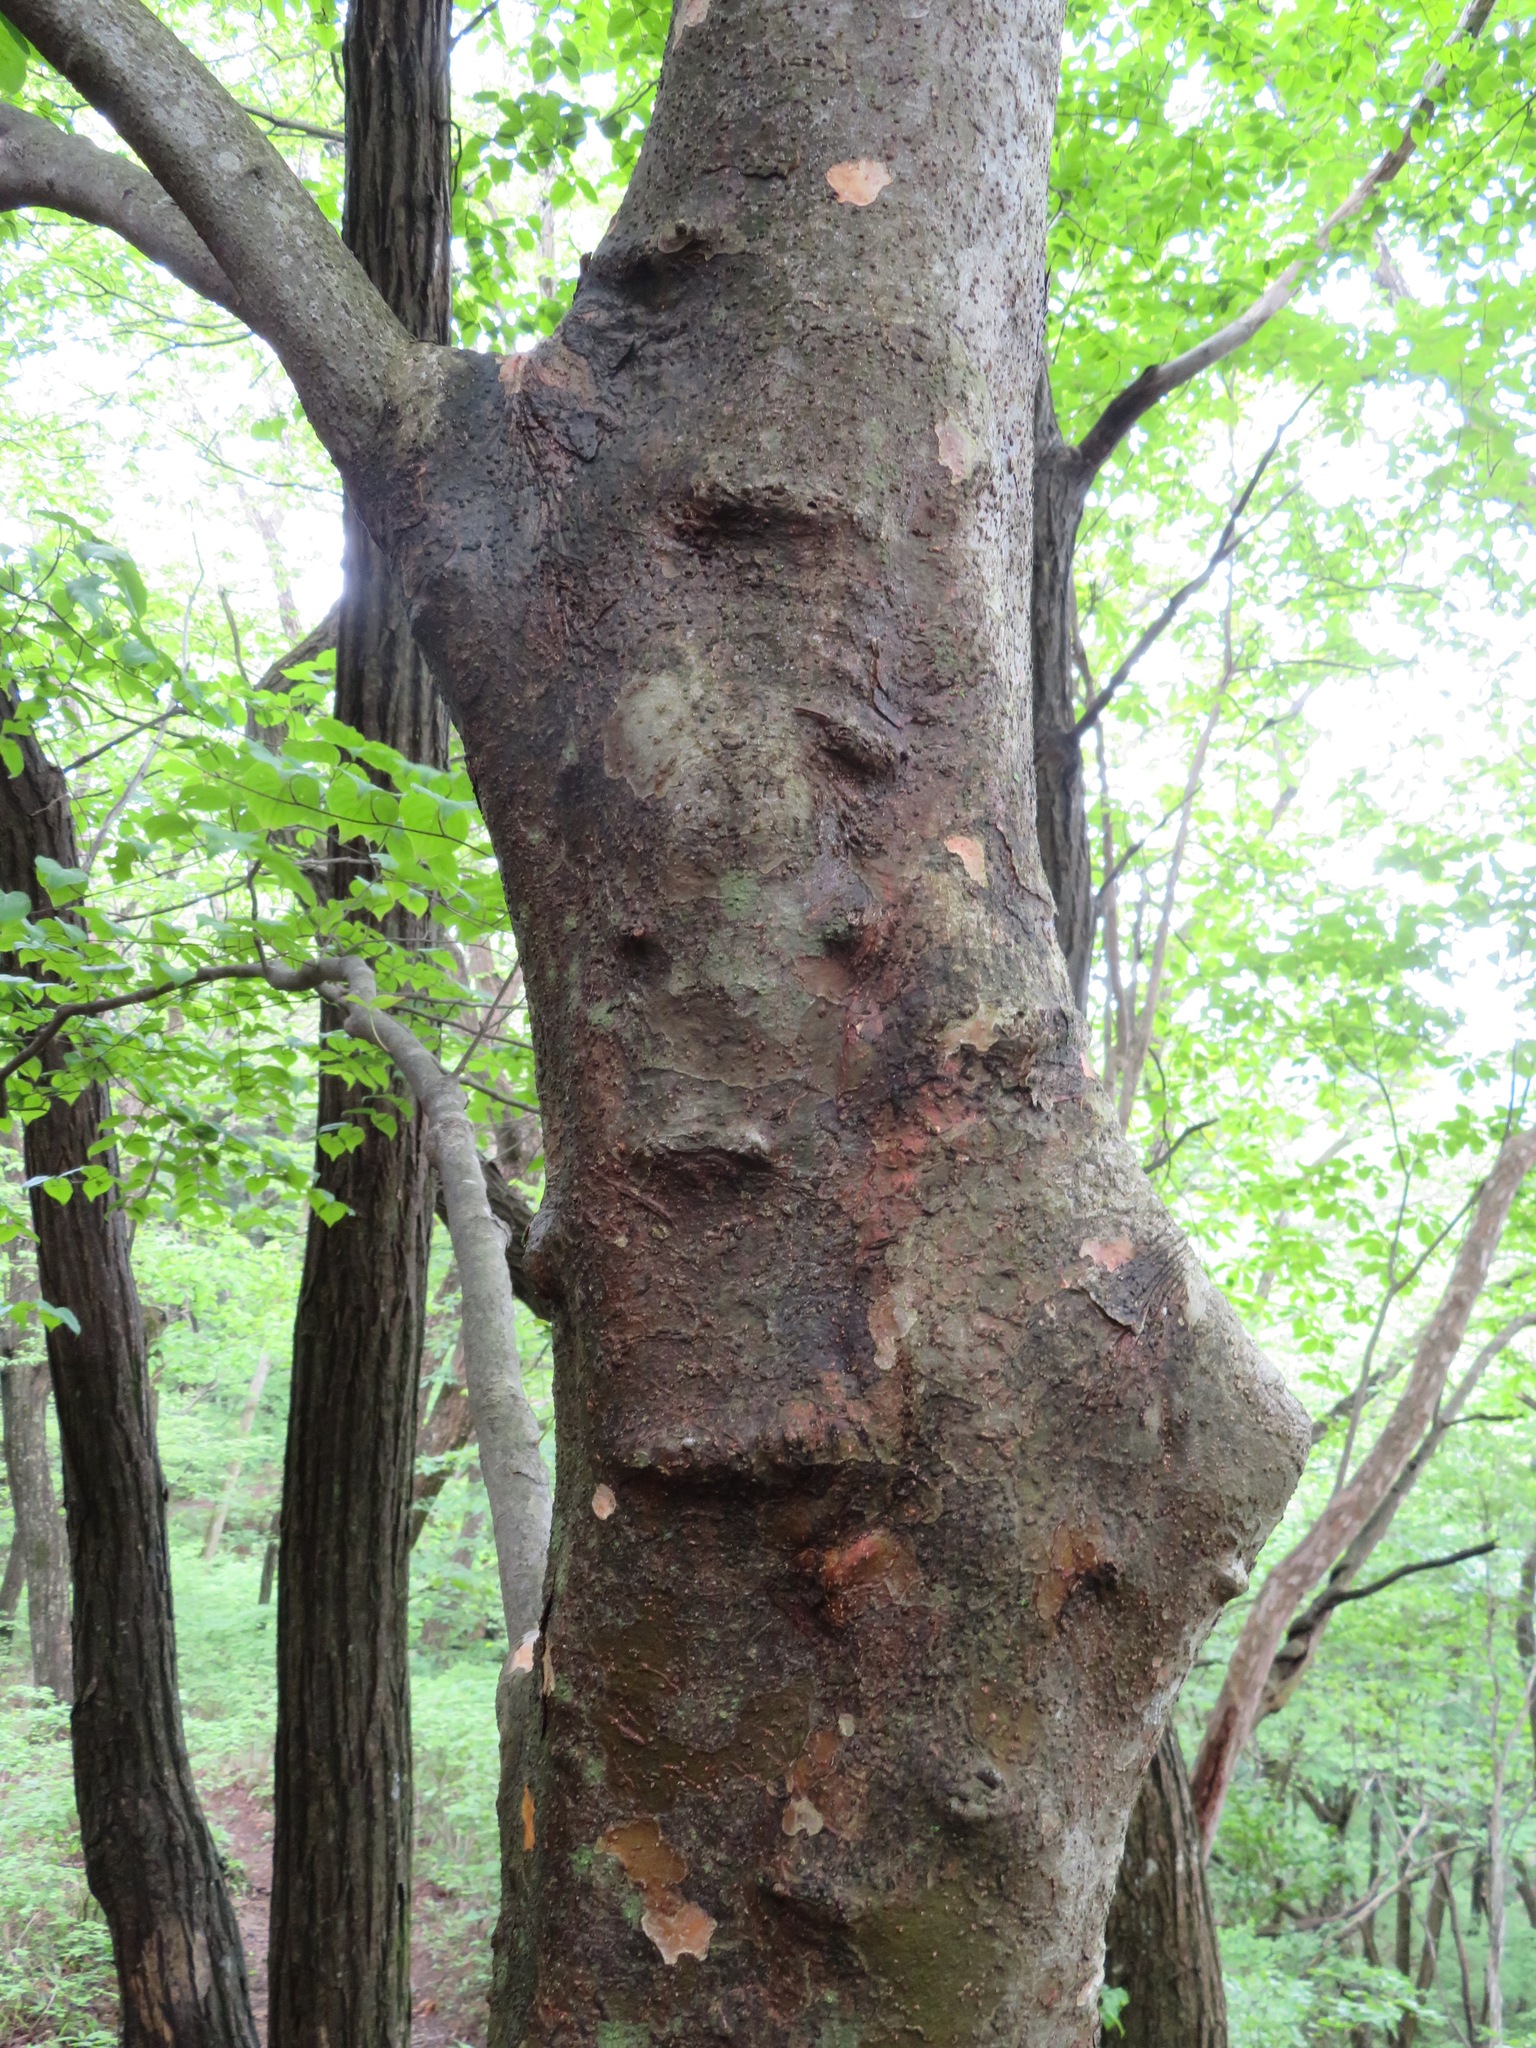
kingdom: Plantae
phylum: Tracheophyta
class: Magnoliopsida
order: Cornales
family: Cornaceae
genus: Cornus
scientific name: Cornus kousa
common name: Japanese dogwood
